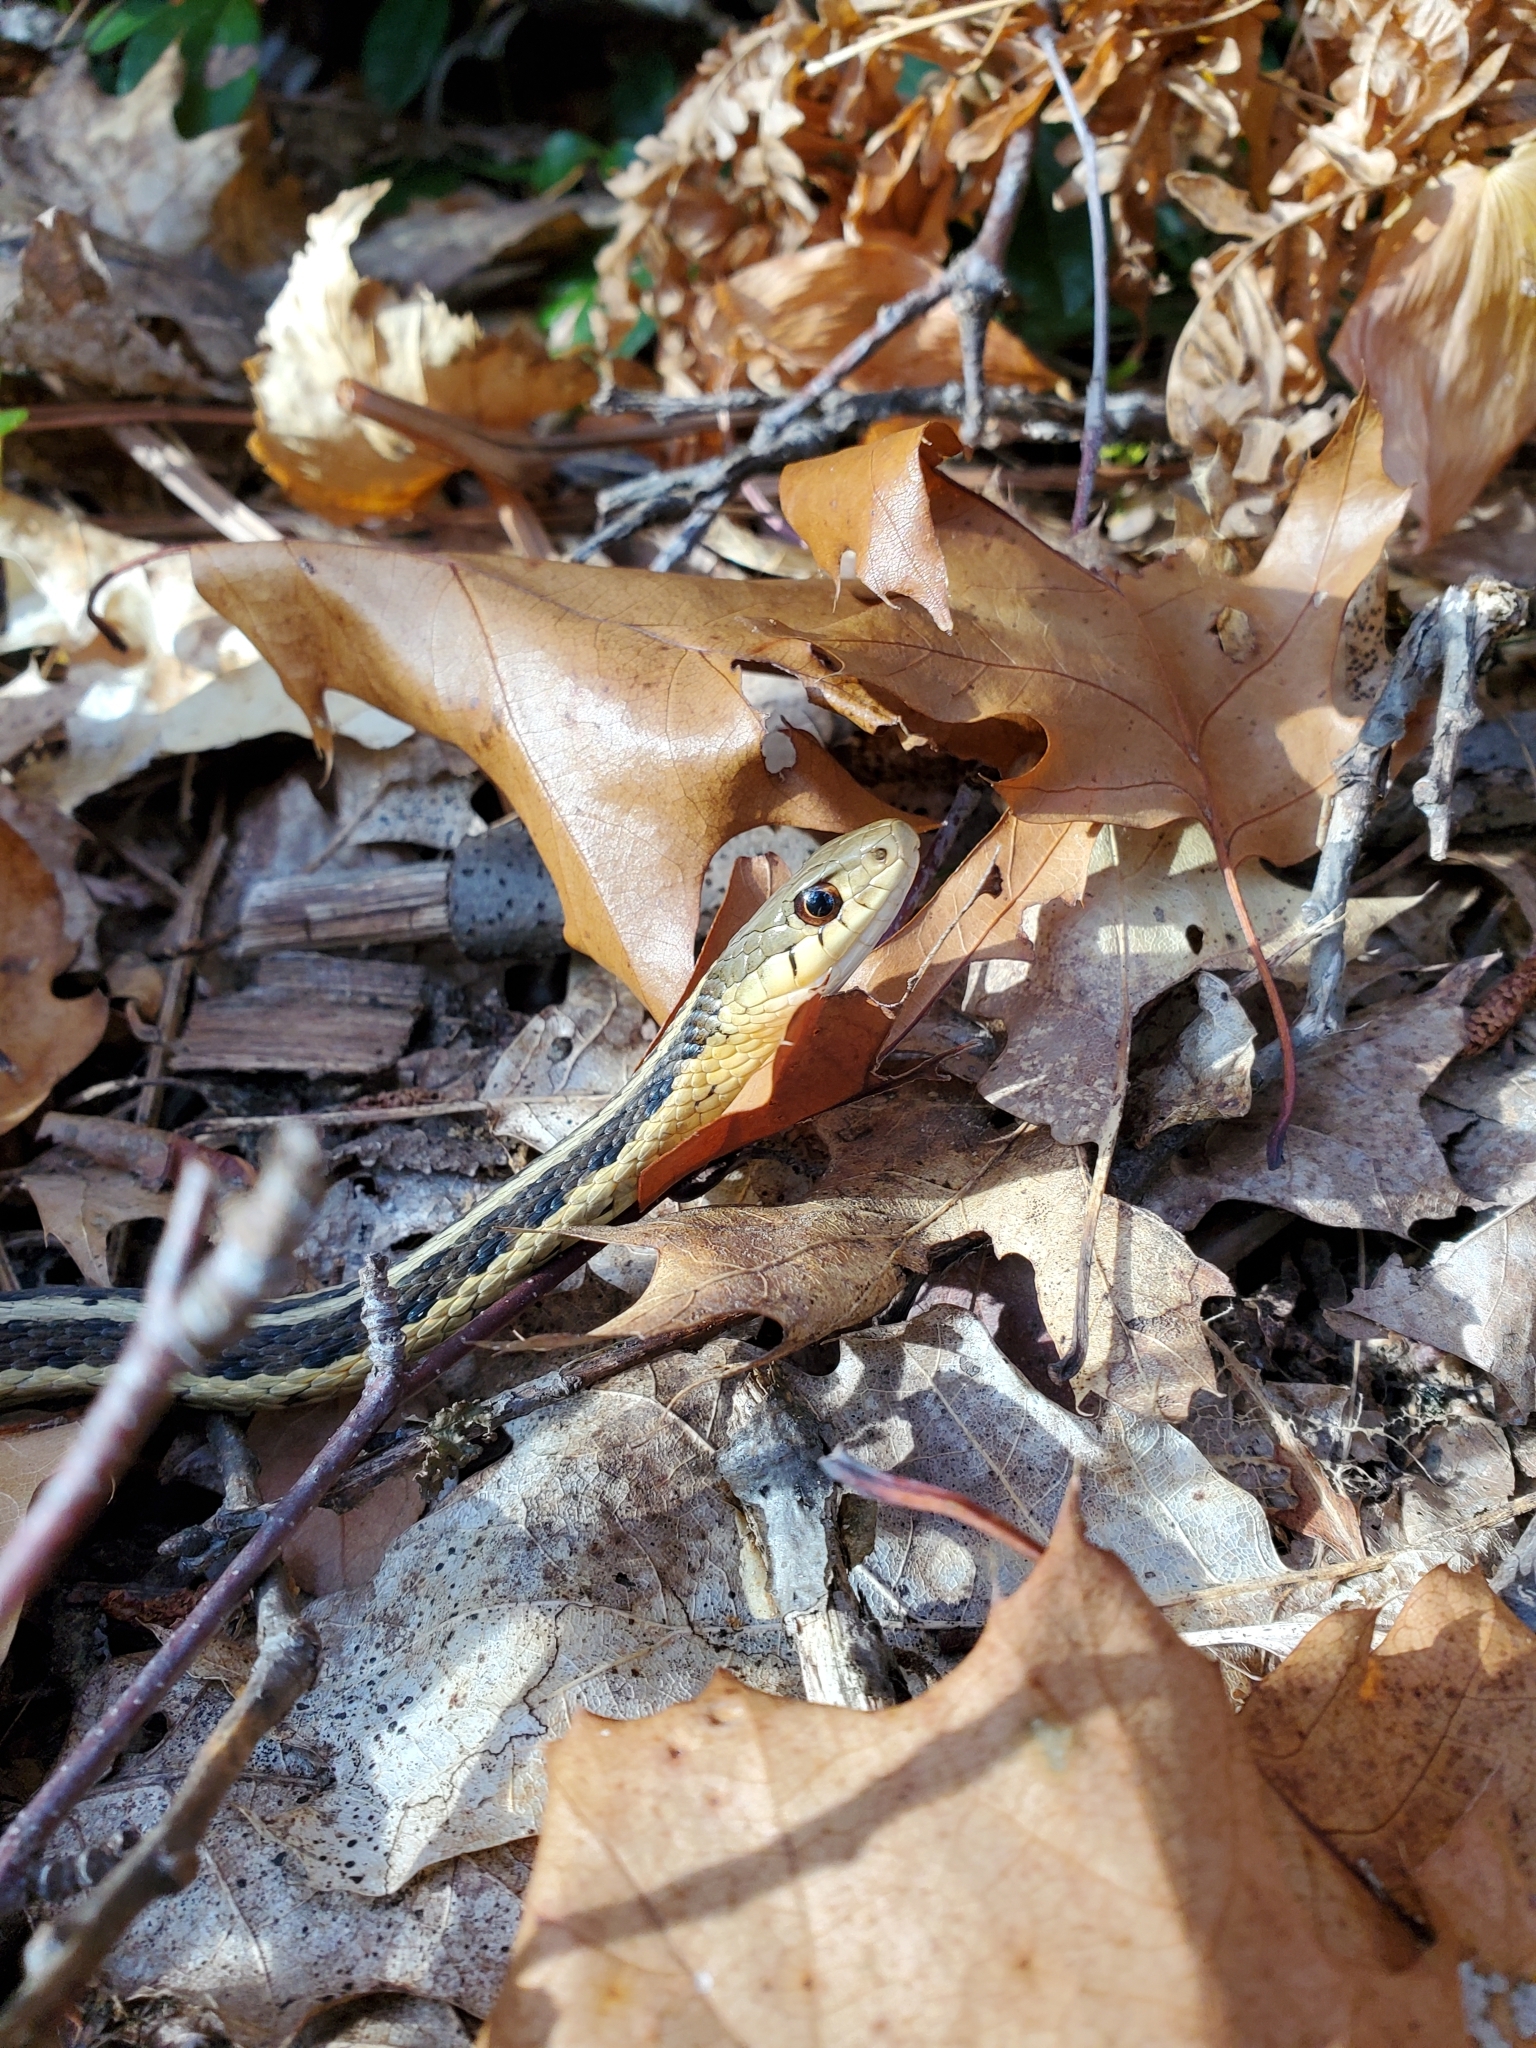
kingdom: Animalia
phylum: Chordata
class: Squamata
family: Colubridae
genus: Thamnophis
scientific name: Thamnophis sirtalis
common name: Common garter snake
